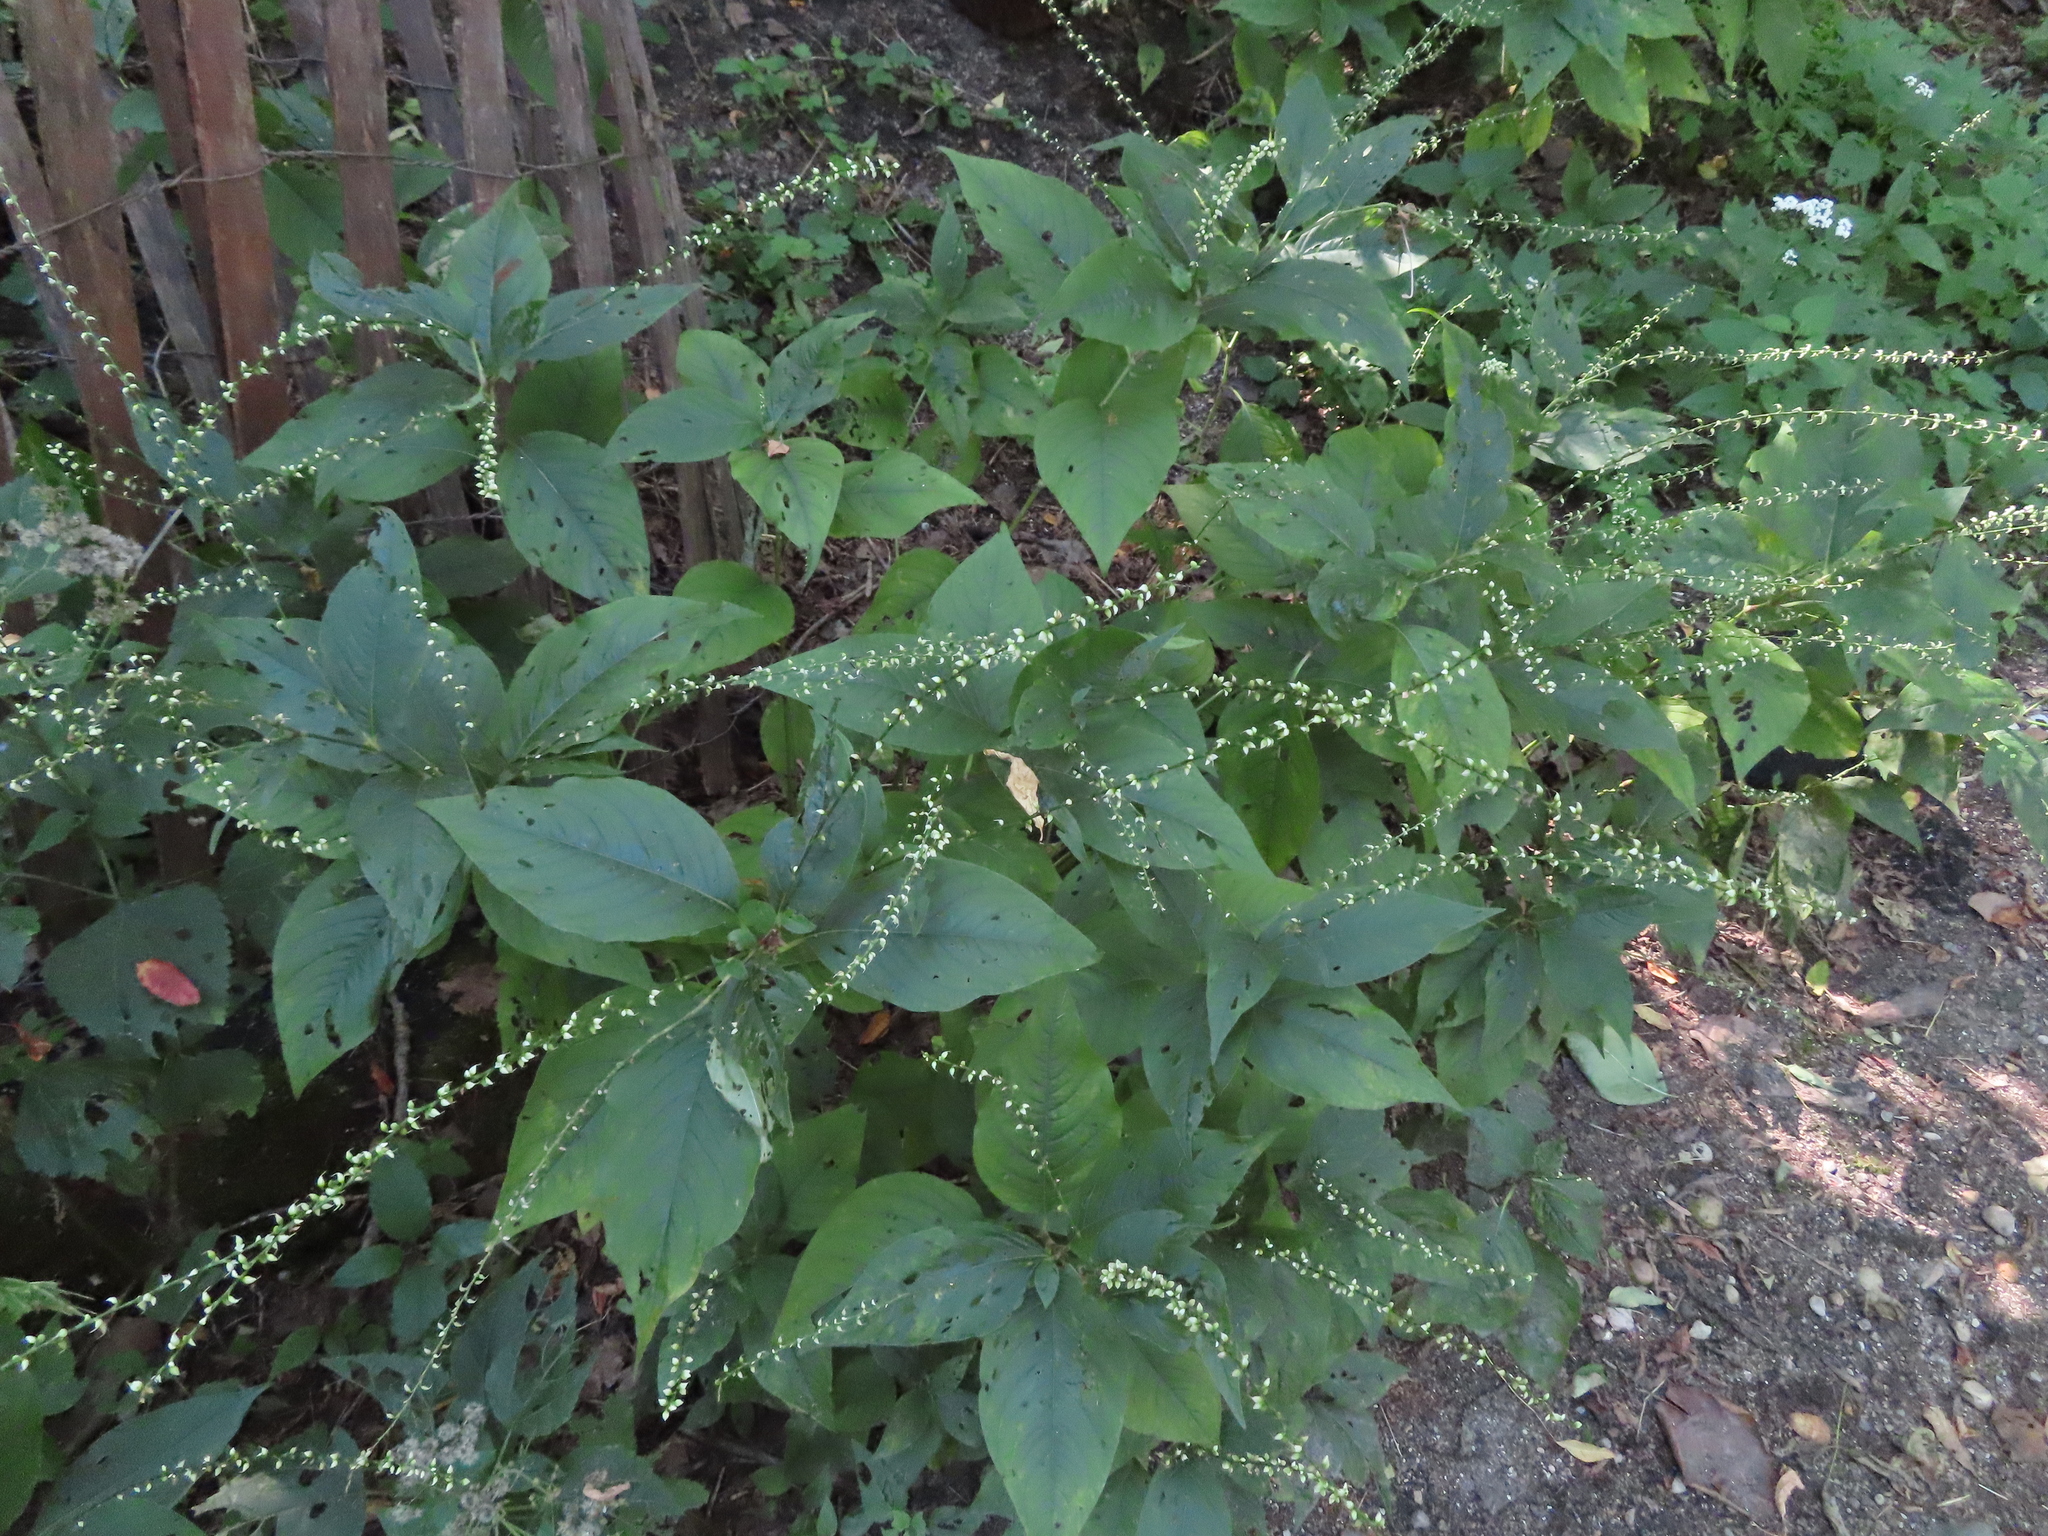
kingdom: Plantae
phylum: Tracheophyta
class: Magnoliopsida
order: Caryophyllales
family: Polygonaceae
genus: Persicaria
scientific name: Persicaria virginiana
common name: Jumpseed
